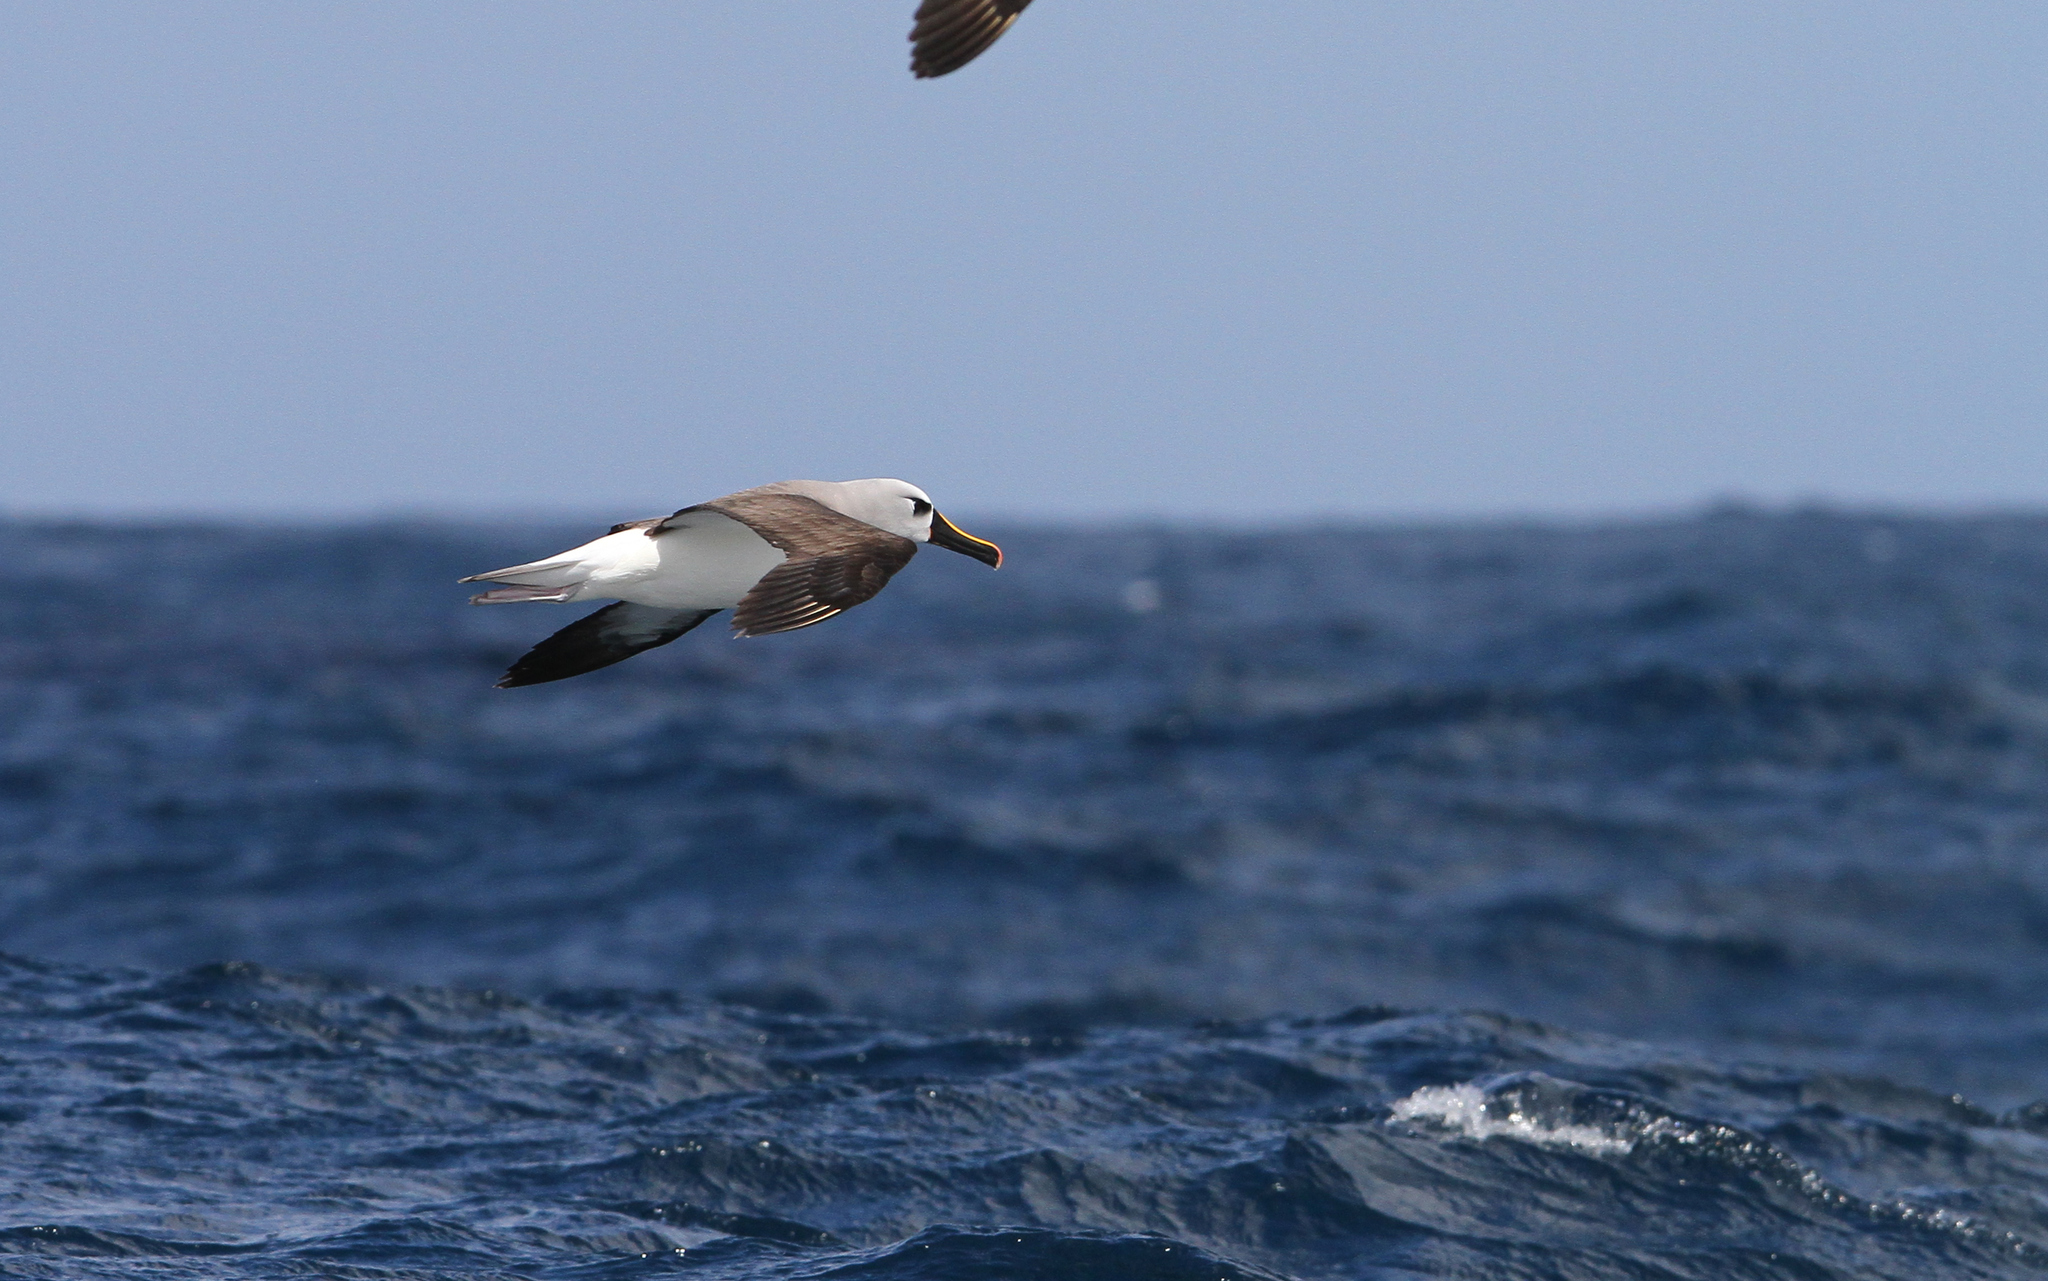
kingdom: Animalia
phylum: Chordata
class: Aves
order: Procellariiformes
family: Diomedeidae
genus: Thalassarche
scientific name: Thalassarche chlororhynchos
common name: Atlantic yellow-nosed albatross
